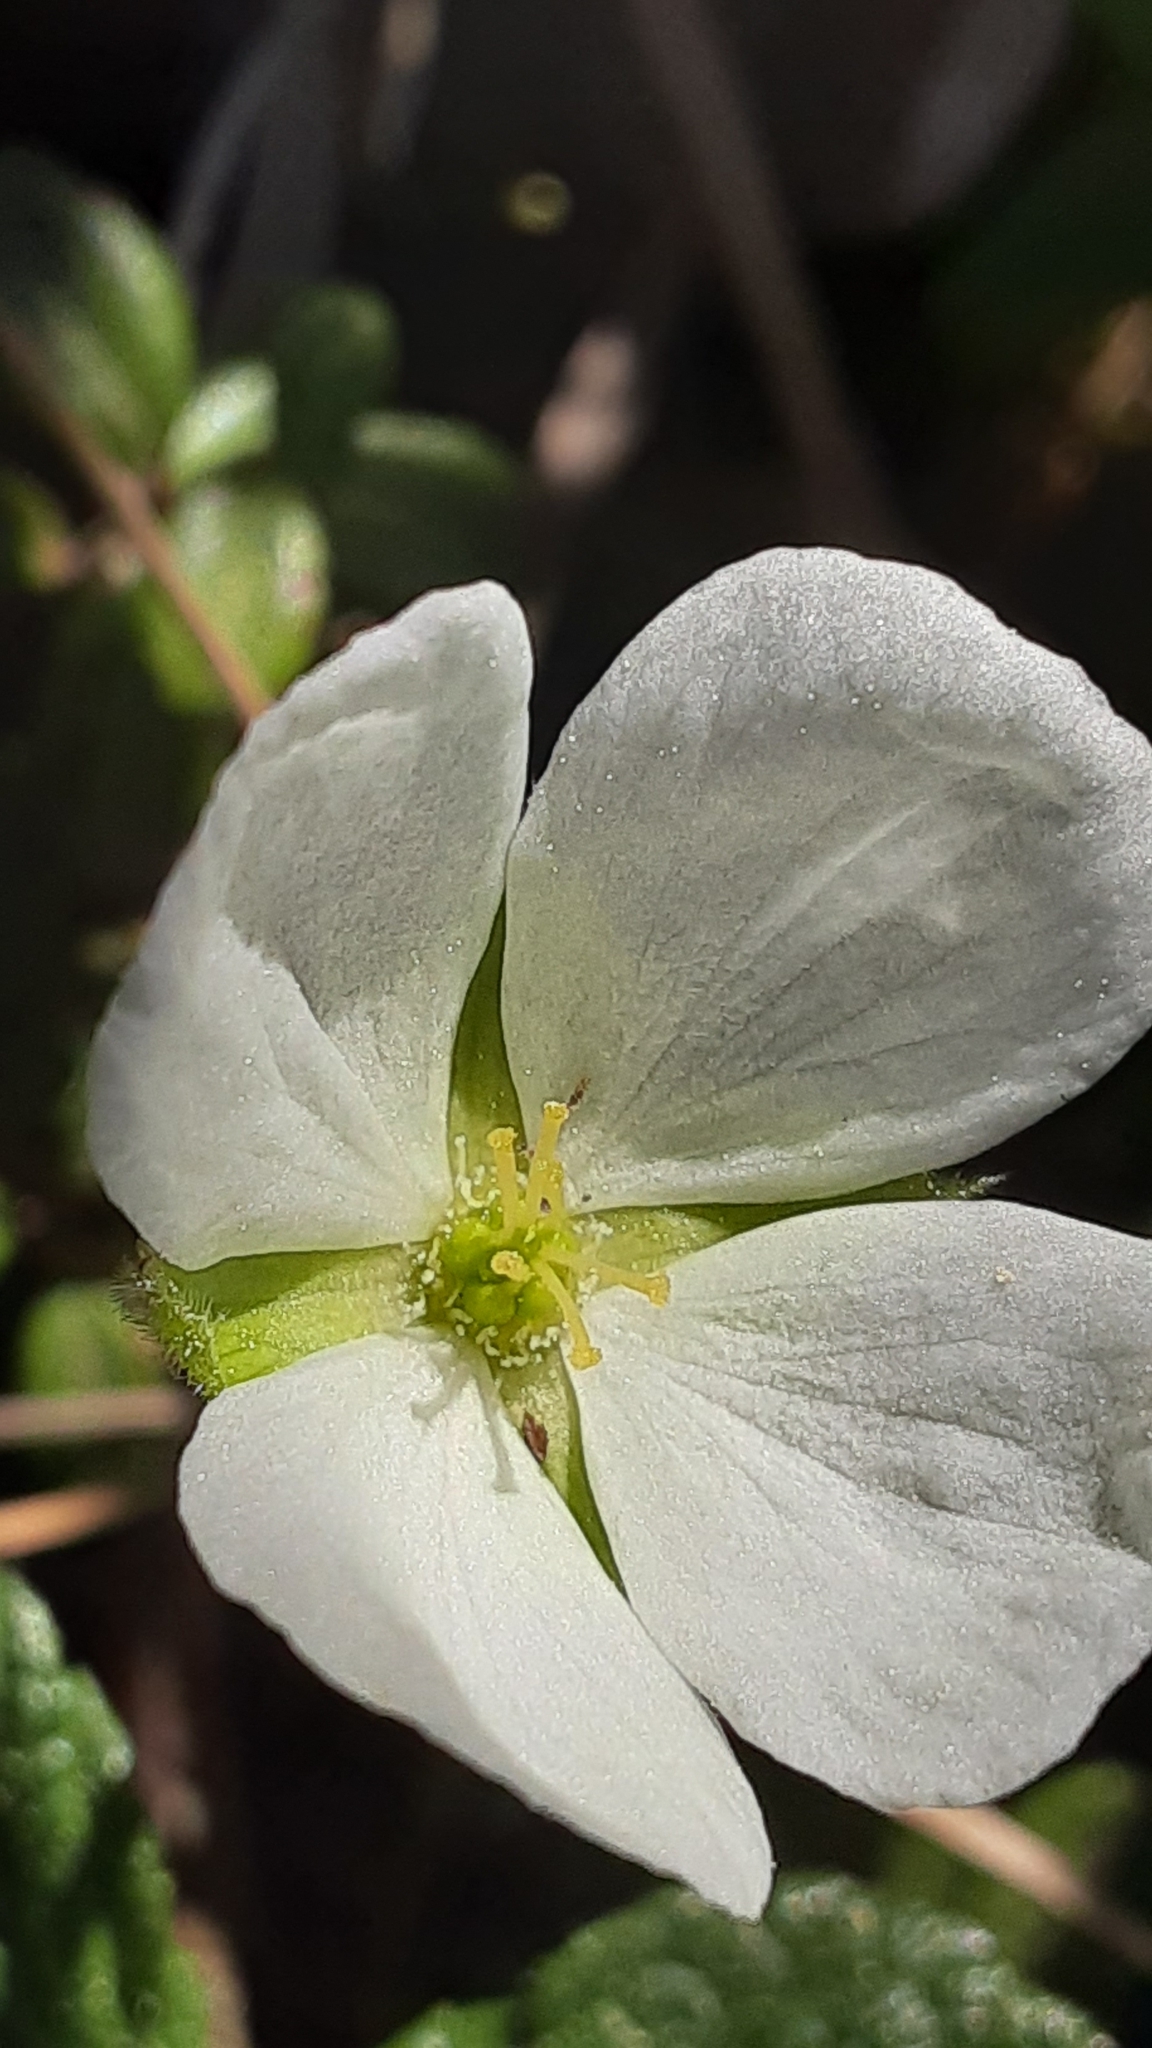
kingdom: Plantae
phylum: Tracheophyta
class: Magnoliopsida
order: Rosales
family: Rosaceae
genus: Rubus
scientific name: Rubus chamaemorus
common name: Cloudberry
